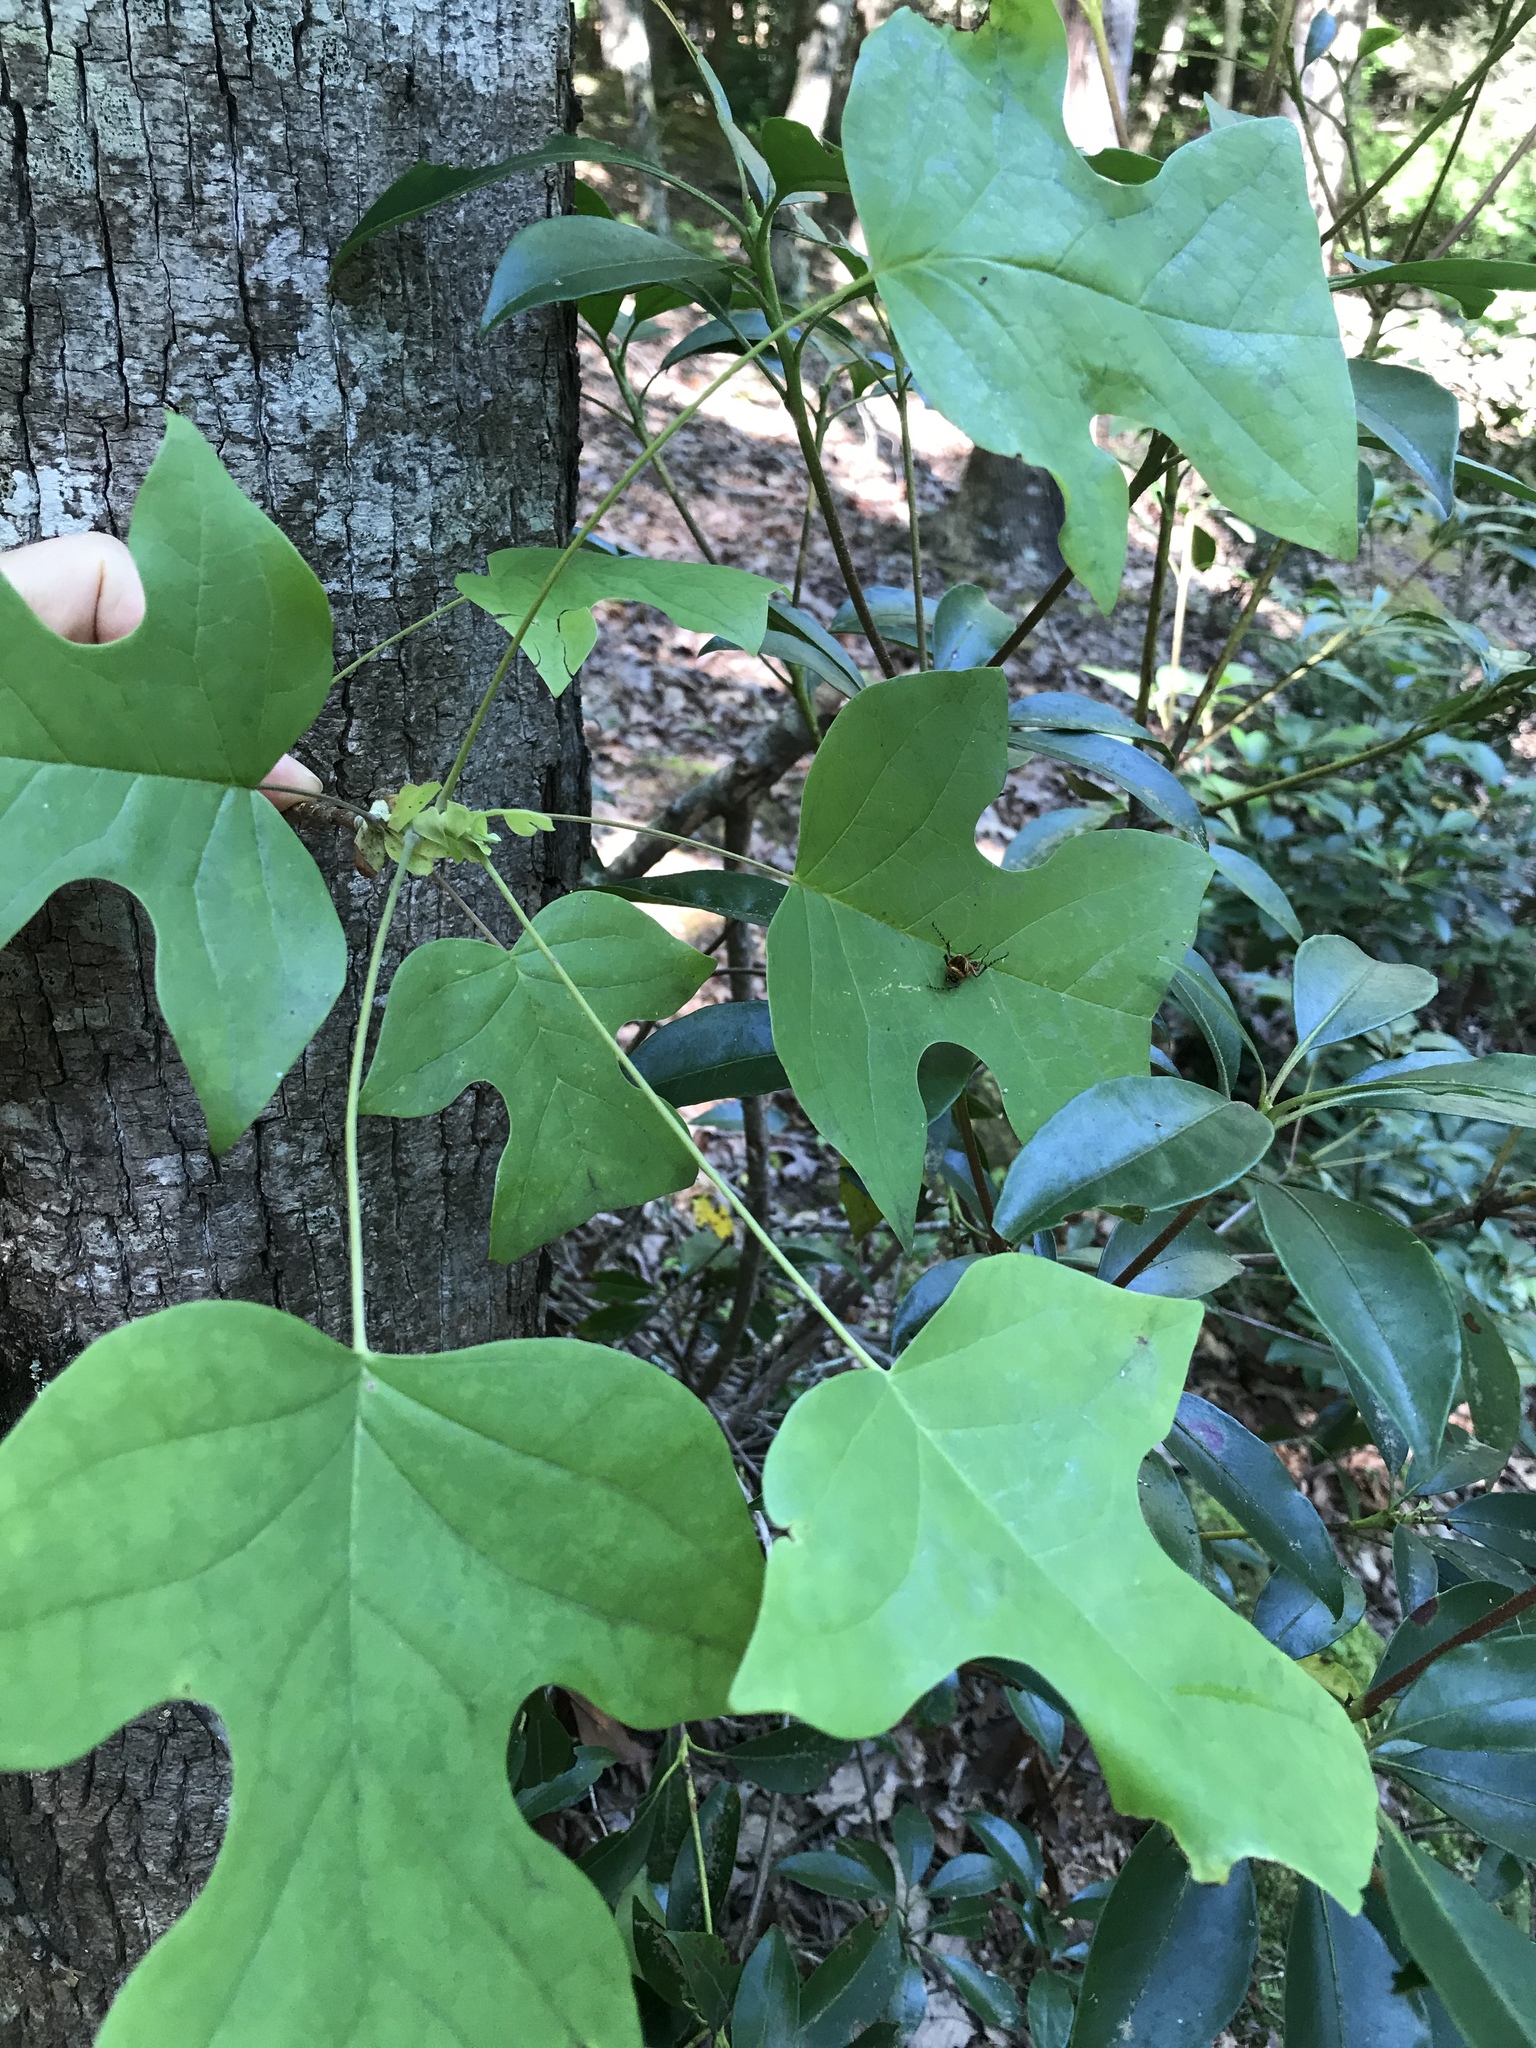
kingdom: Plantae
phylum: Tracheophyta
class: Magnoliopsida
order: Magnoliales
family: Magnoliaceae
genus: Liriodendron
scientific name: Liriodendron tulipifera
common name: Tulip tree
